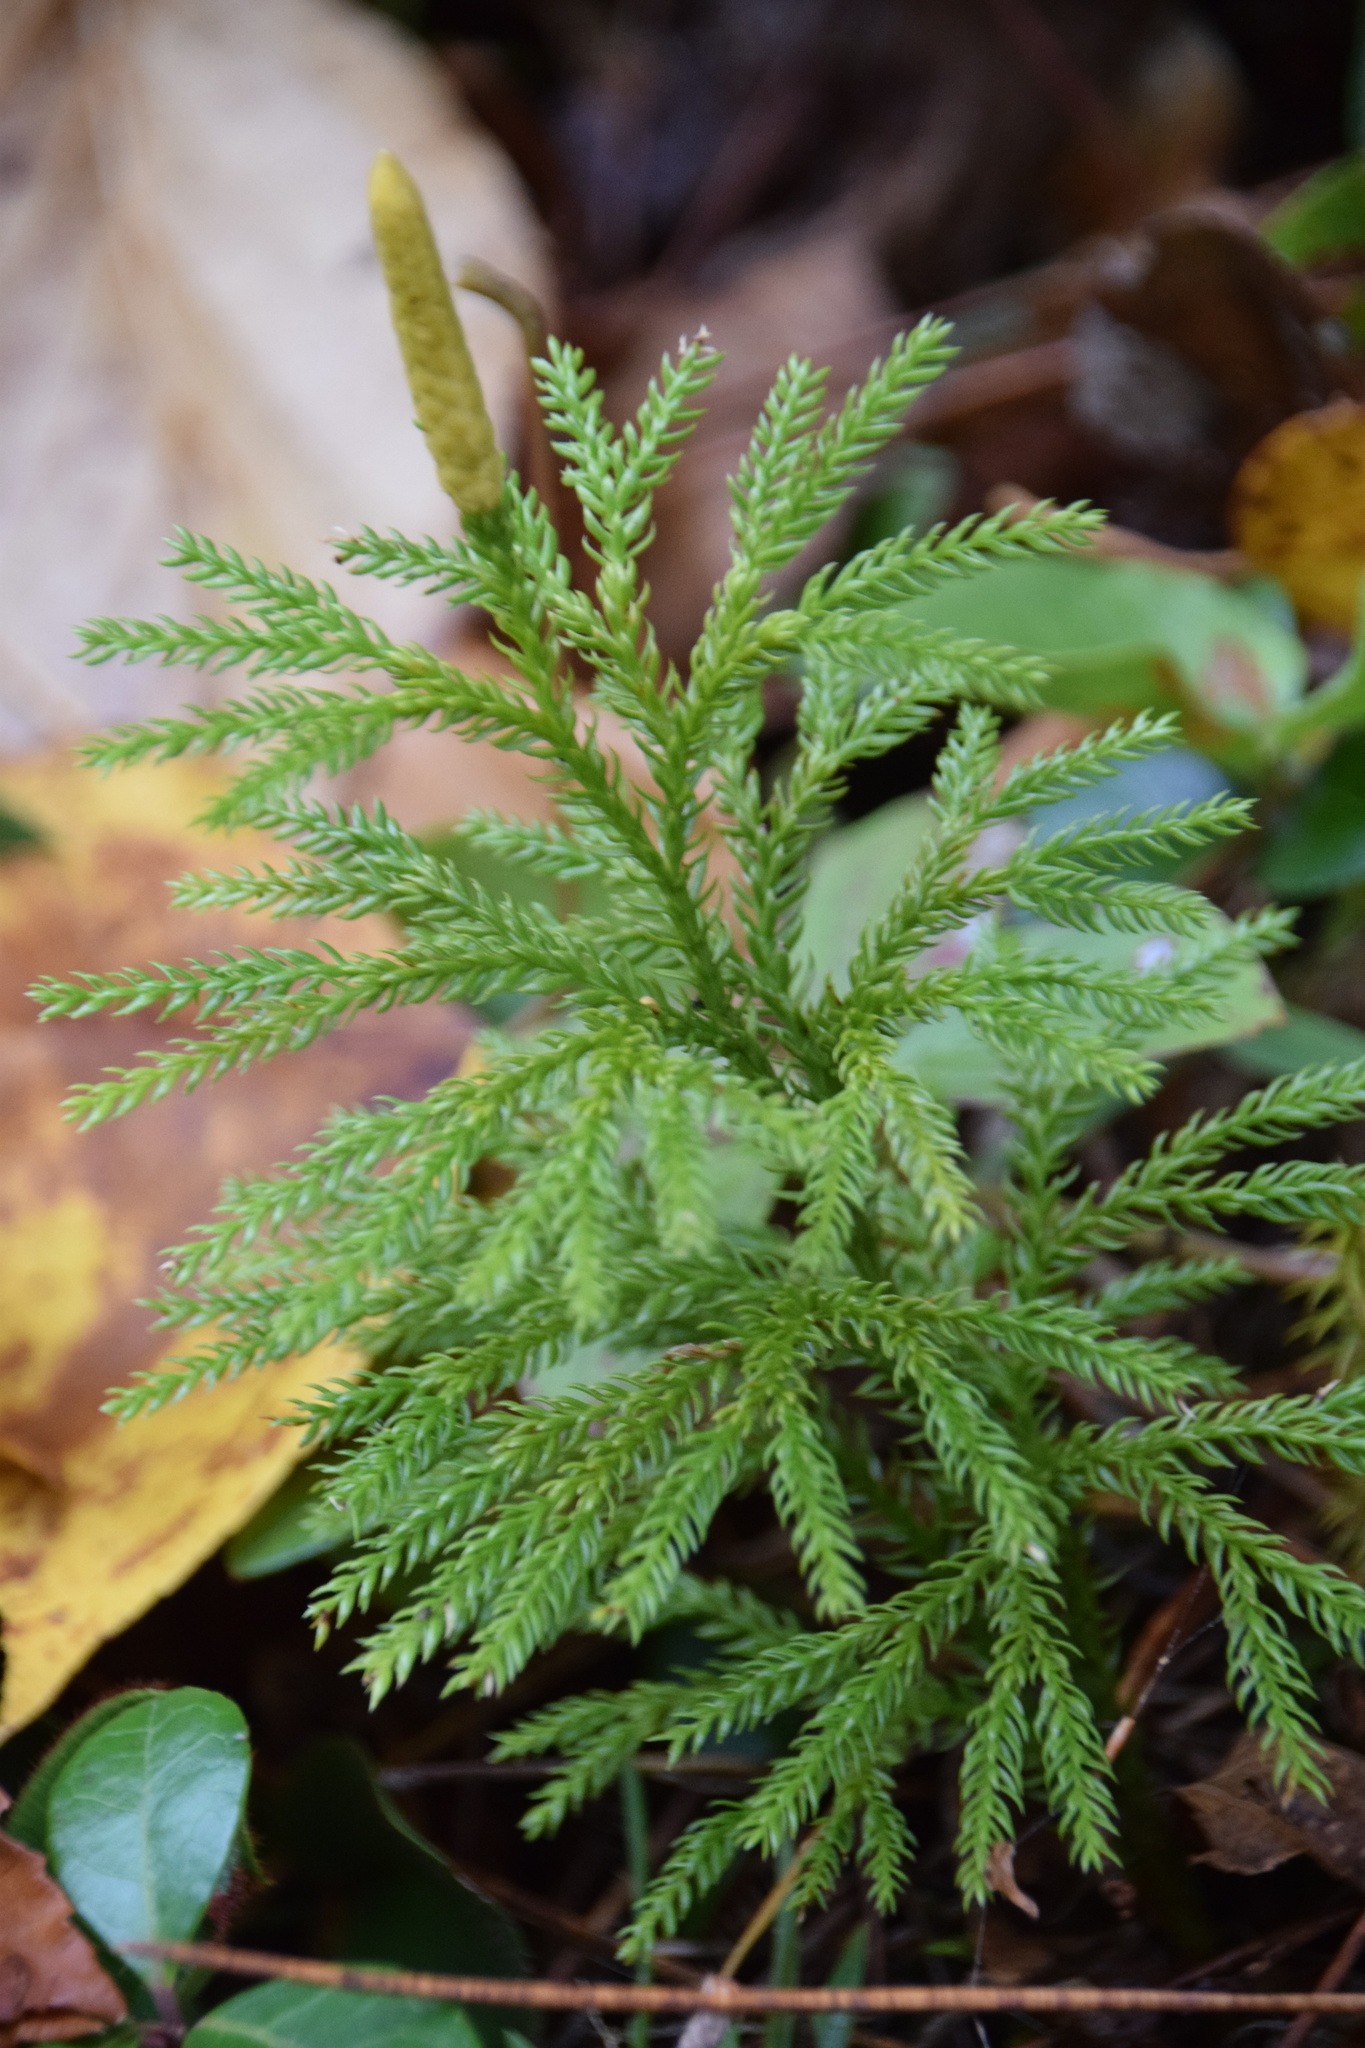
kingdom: Plantae
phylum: Tracheophyta
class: Lycopodiopsida
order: Lycopodiales
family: Lycopodiaceae
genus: Dendrolycopodium
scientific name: Dendrolycopodium dendroideum
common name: Northern tree-clubmoss
